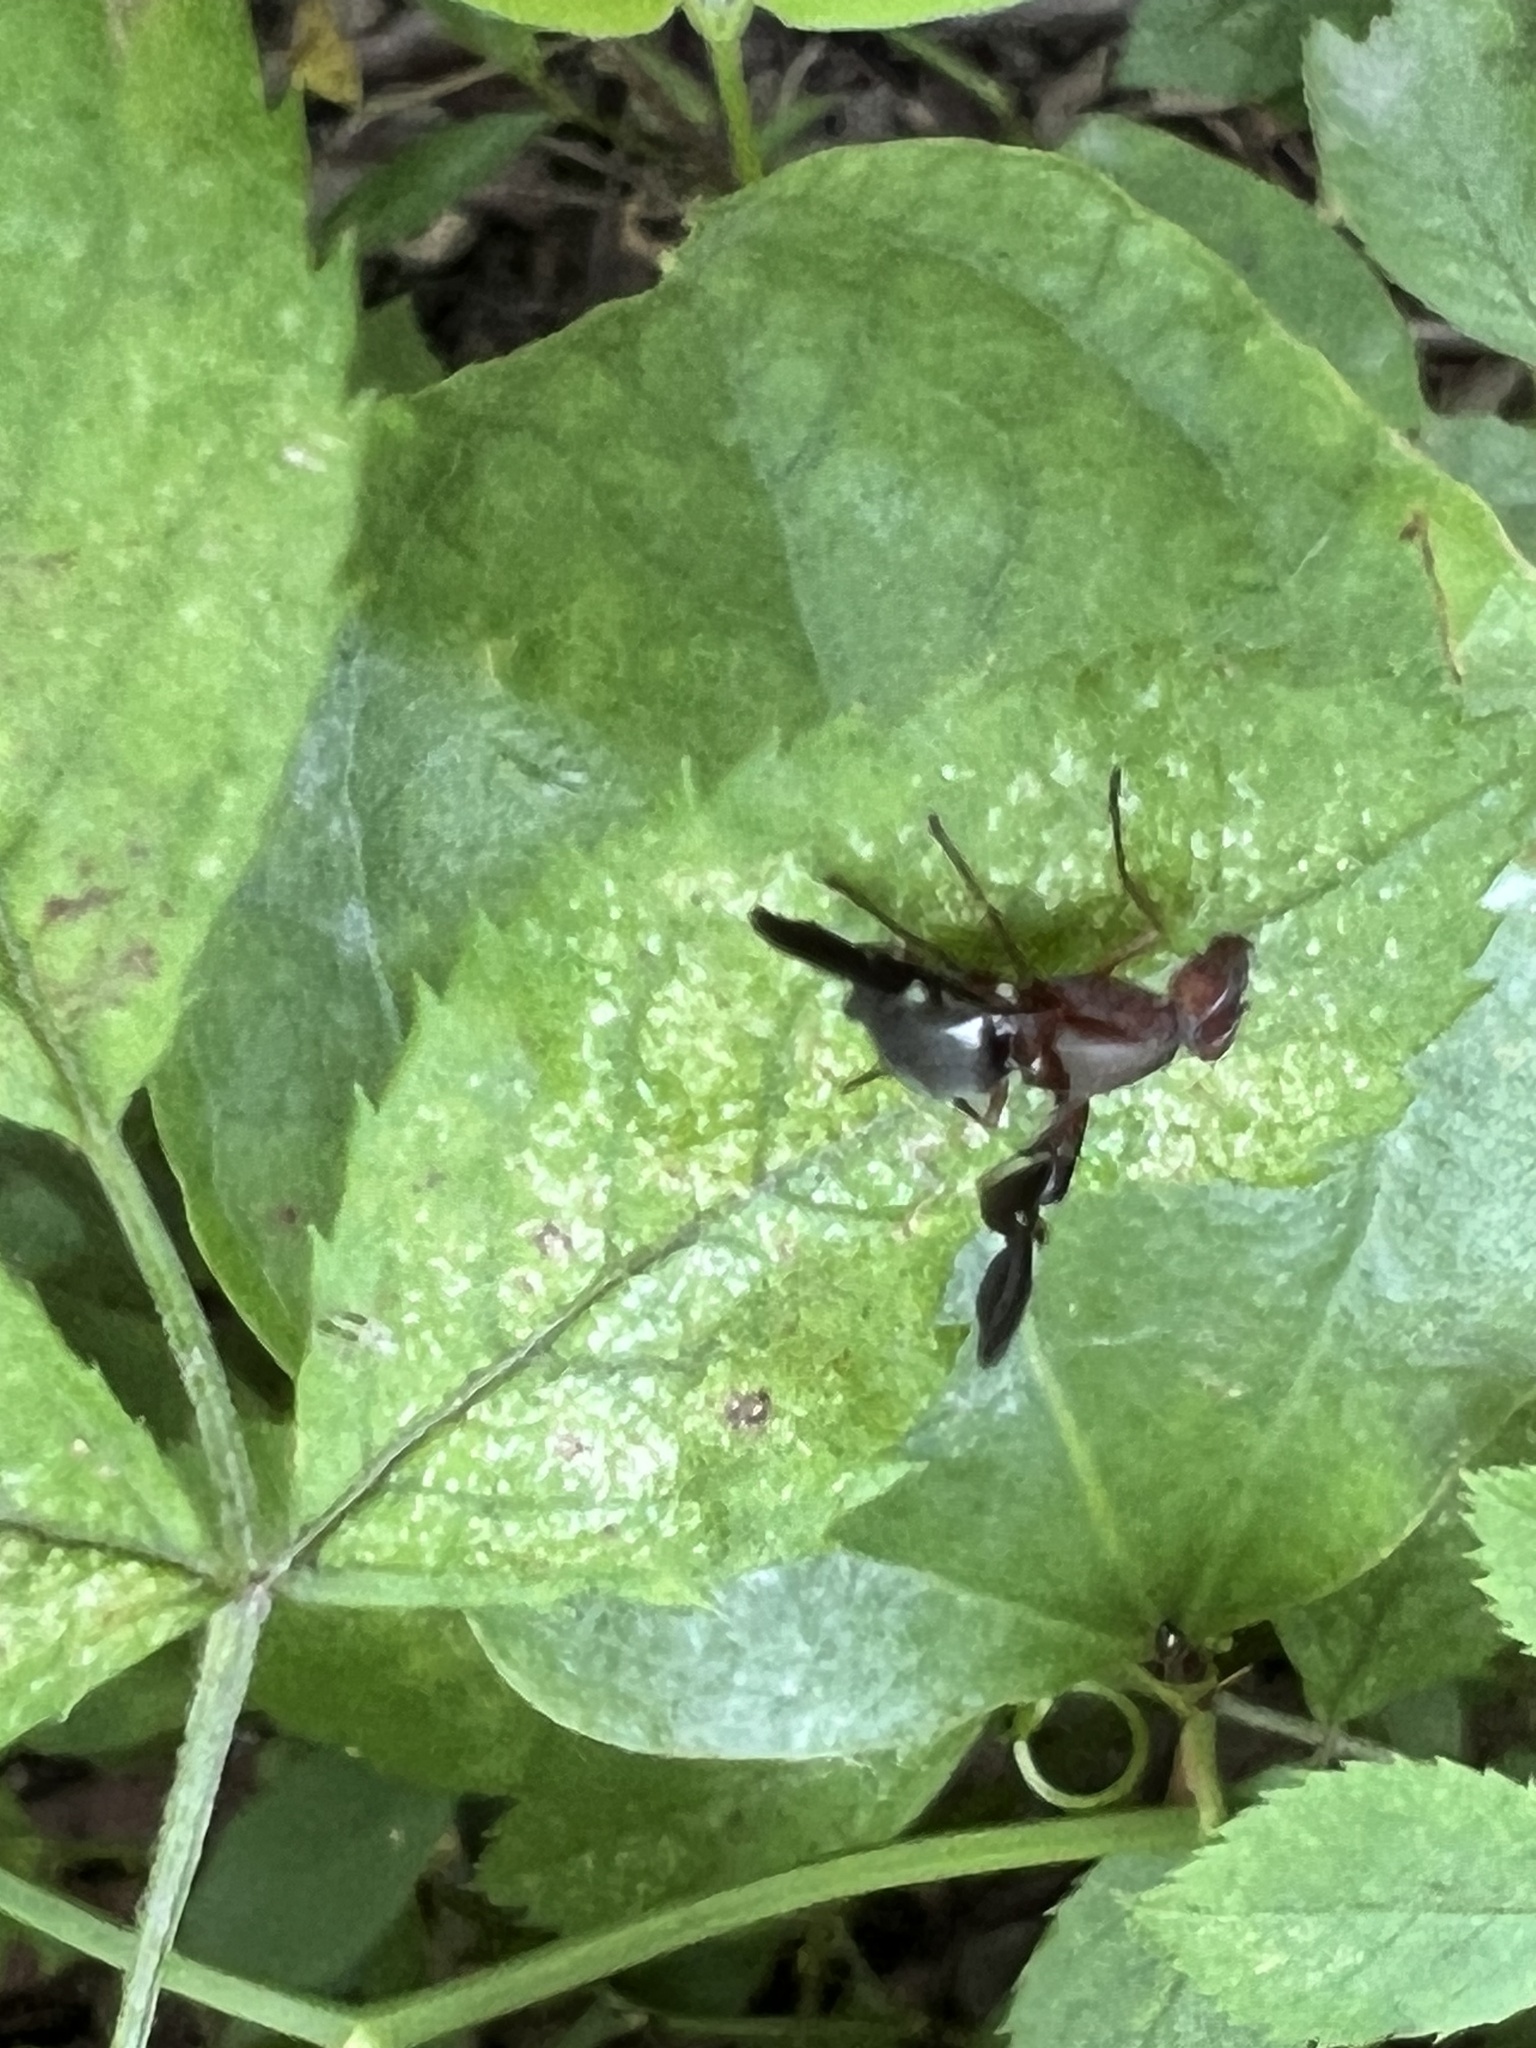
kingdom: Animalia
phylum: Arthropoda
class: Insecta
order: Diptera
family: Ulidiidae
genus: Delphinia
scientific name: Delphinia picta
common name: Common picture-winged fly
